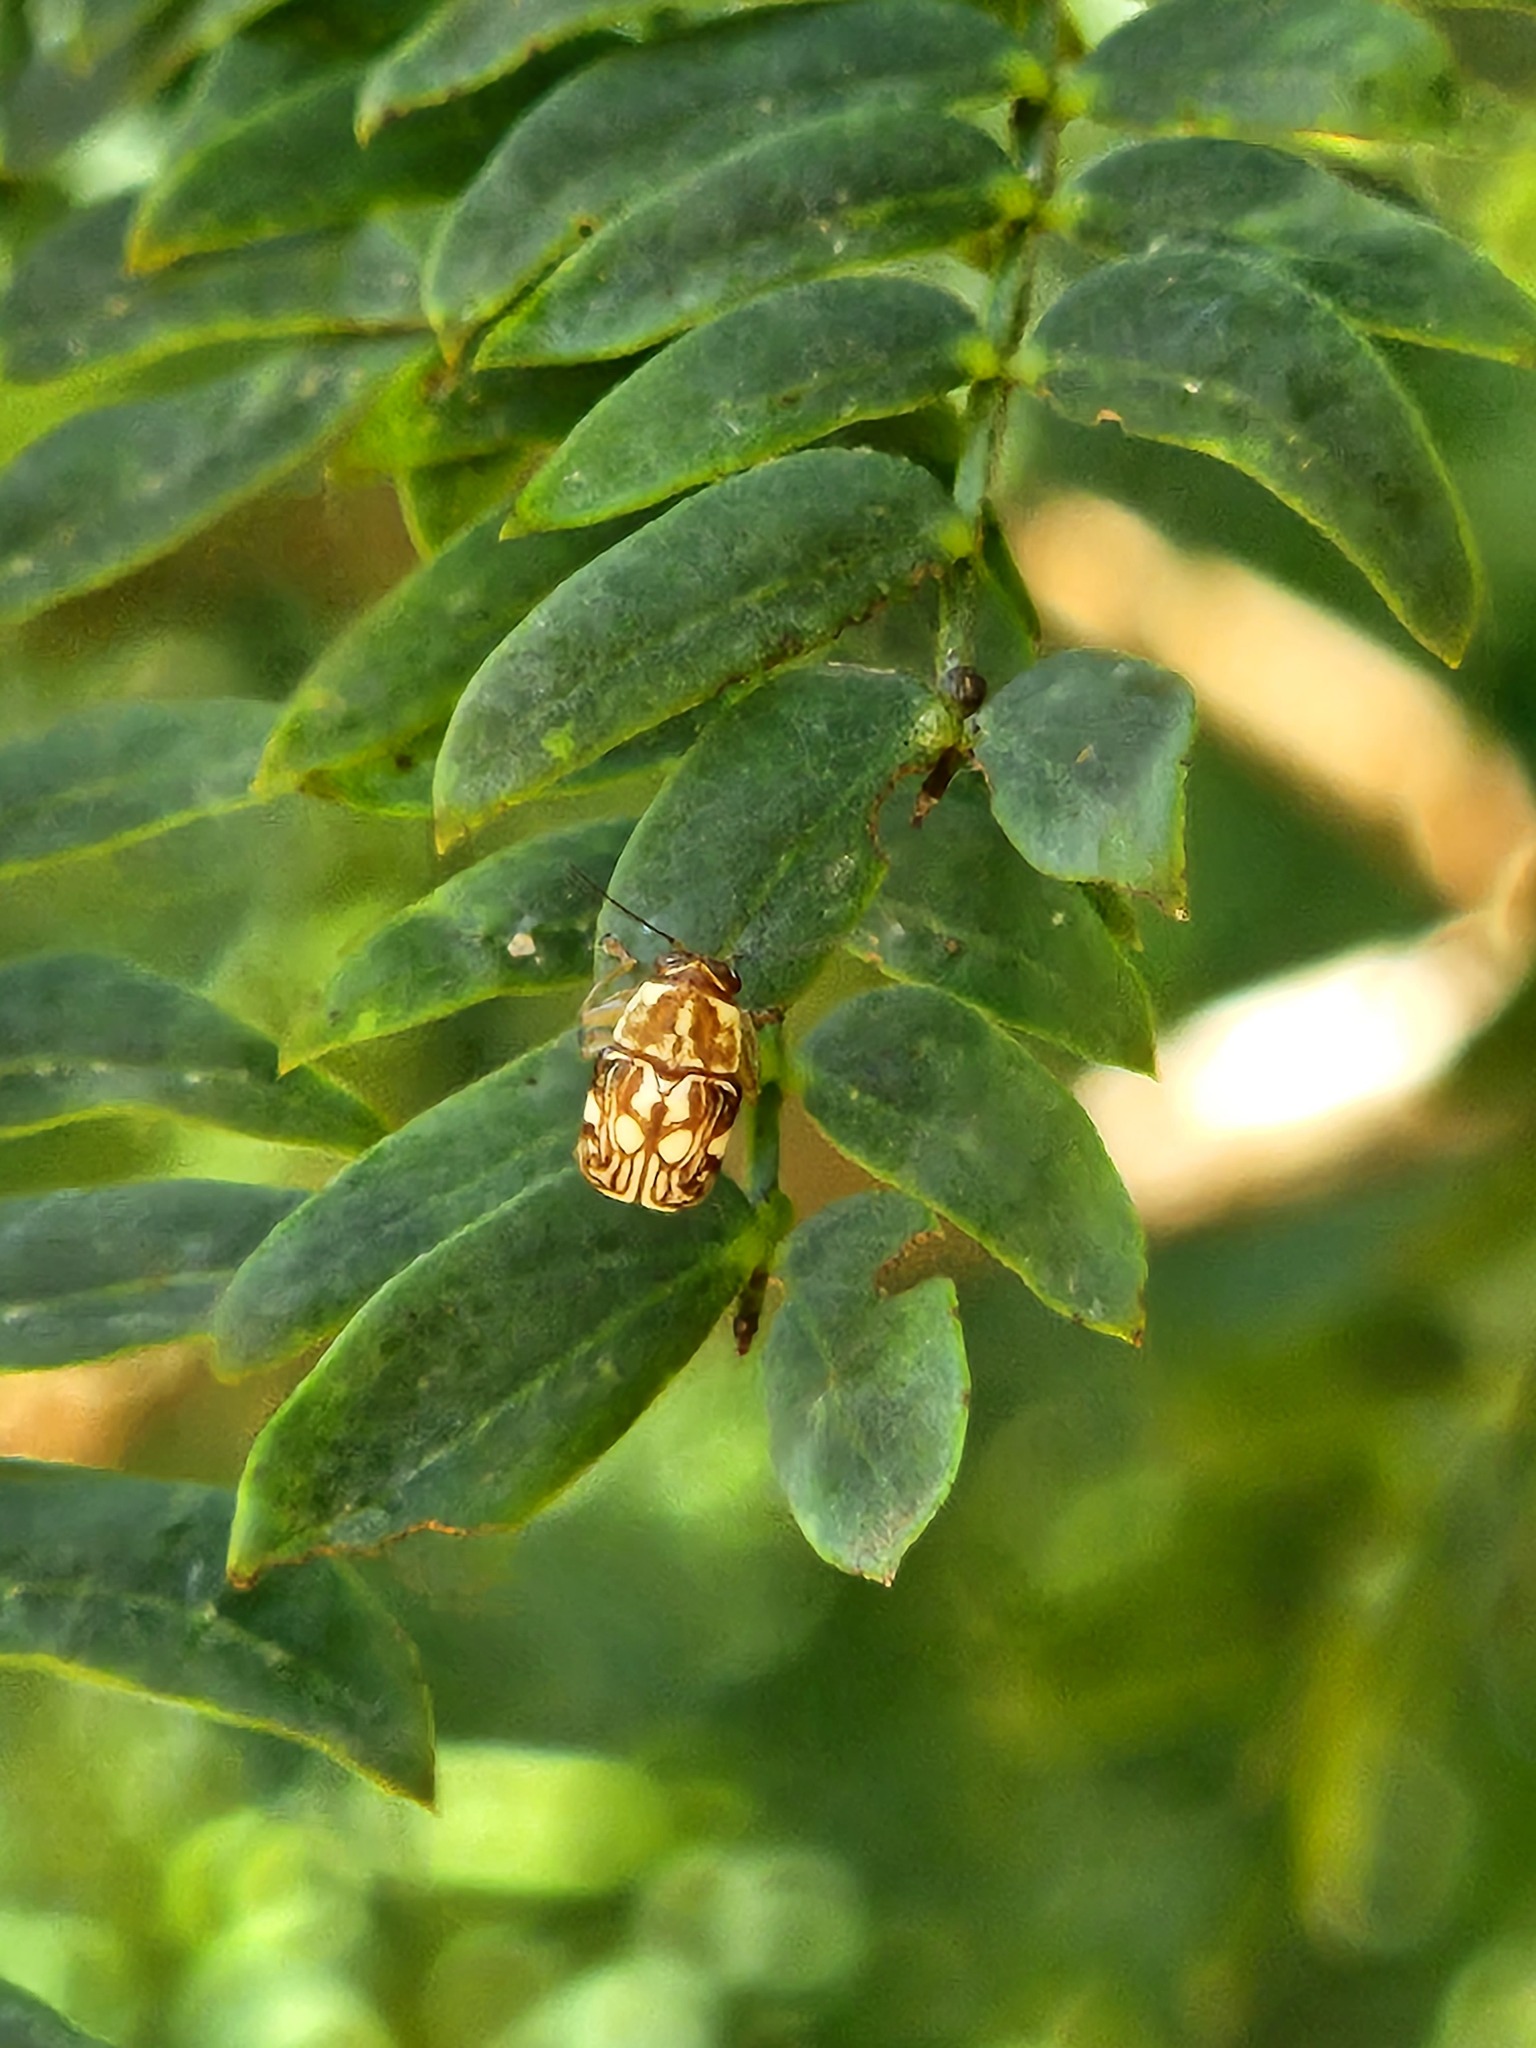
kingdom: Animalia
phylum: Arthropoda
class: Insecta
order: Coleoptera
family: Chrysomelidae
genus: Pachybrachis
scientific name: Pachybrachis
